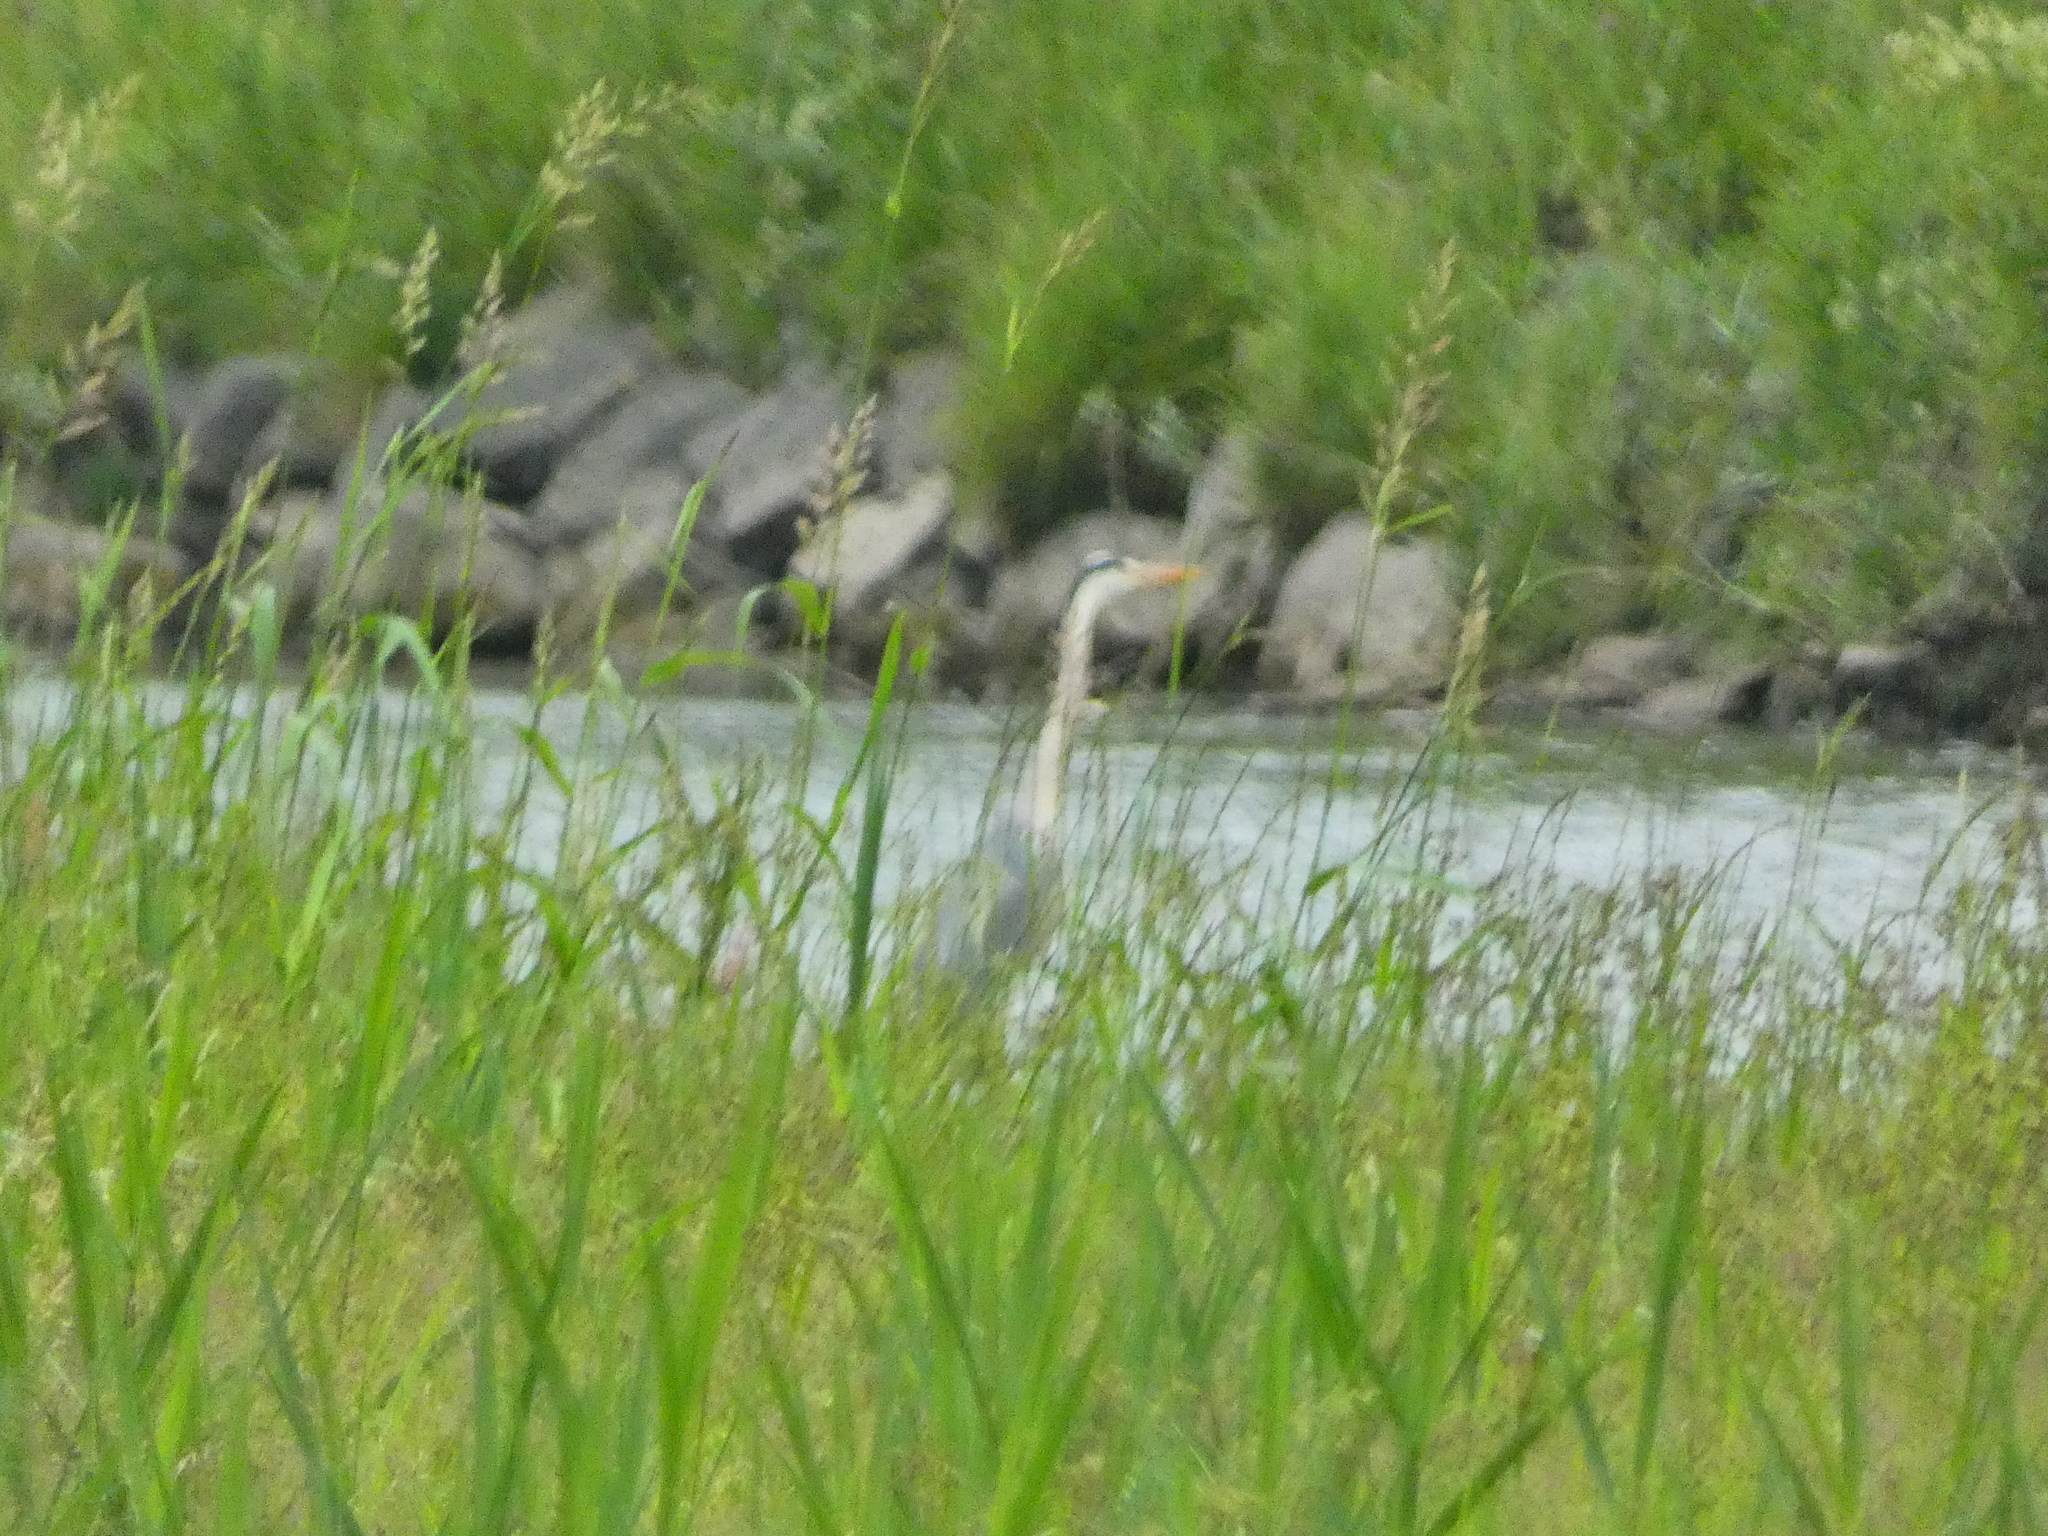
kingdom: Animalia
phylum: Chordata
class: Aves
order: Pelecaniformes
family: Ardeidae
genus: Ardea
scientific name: Ardea cinerea
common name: Grey heron
